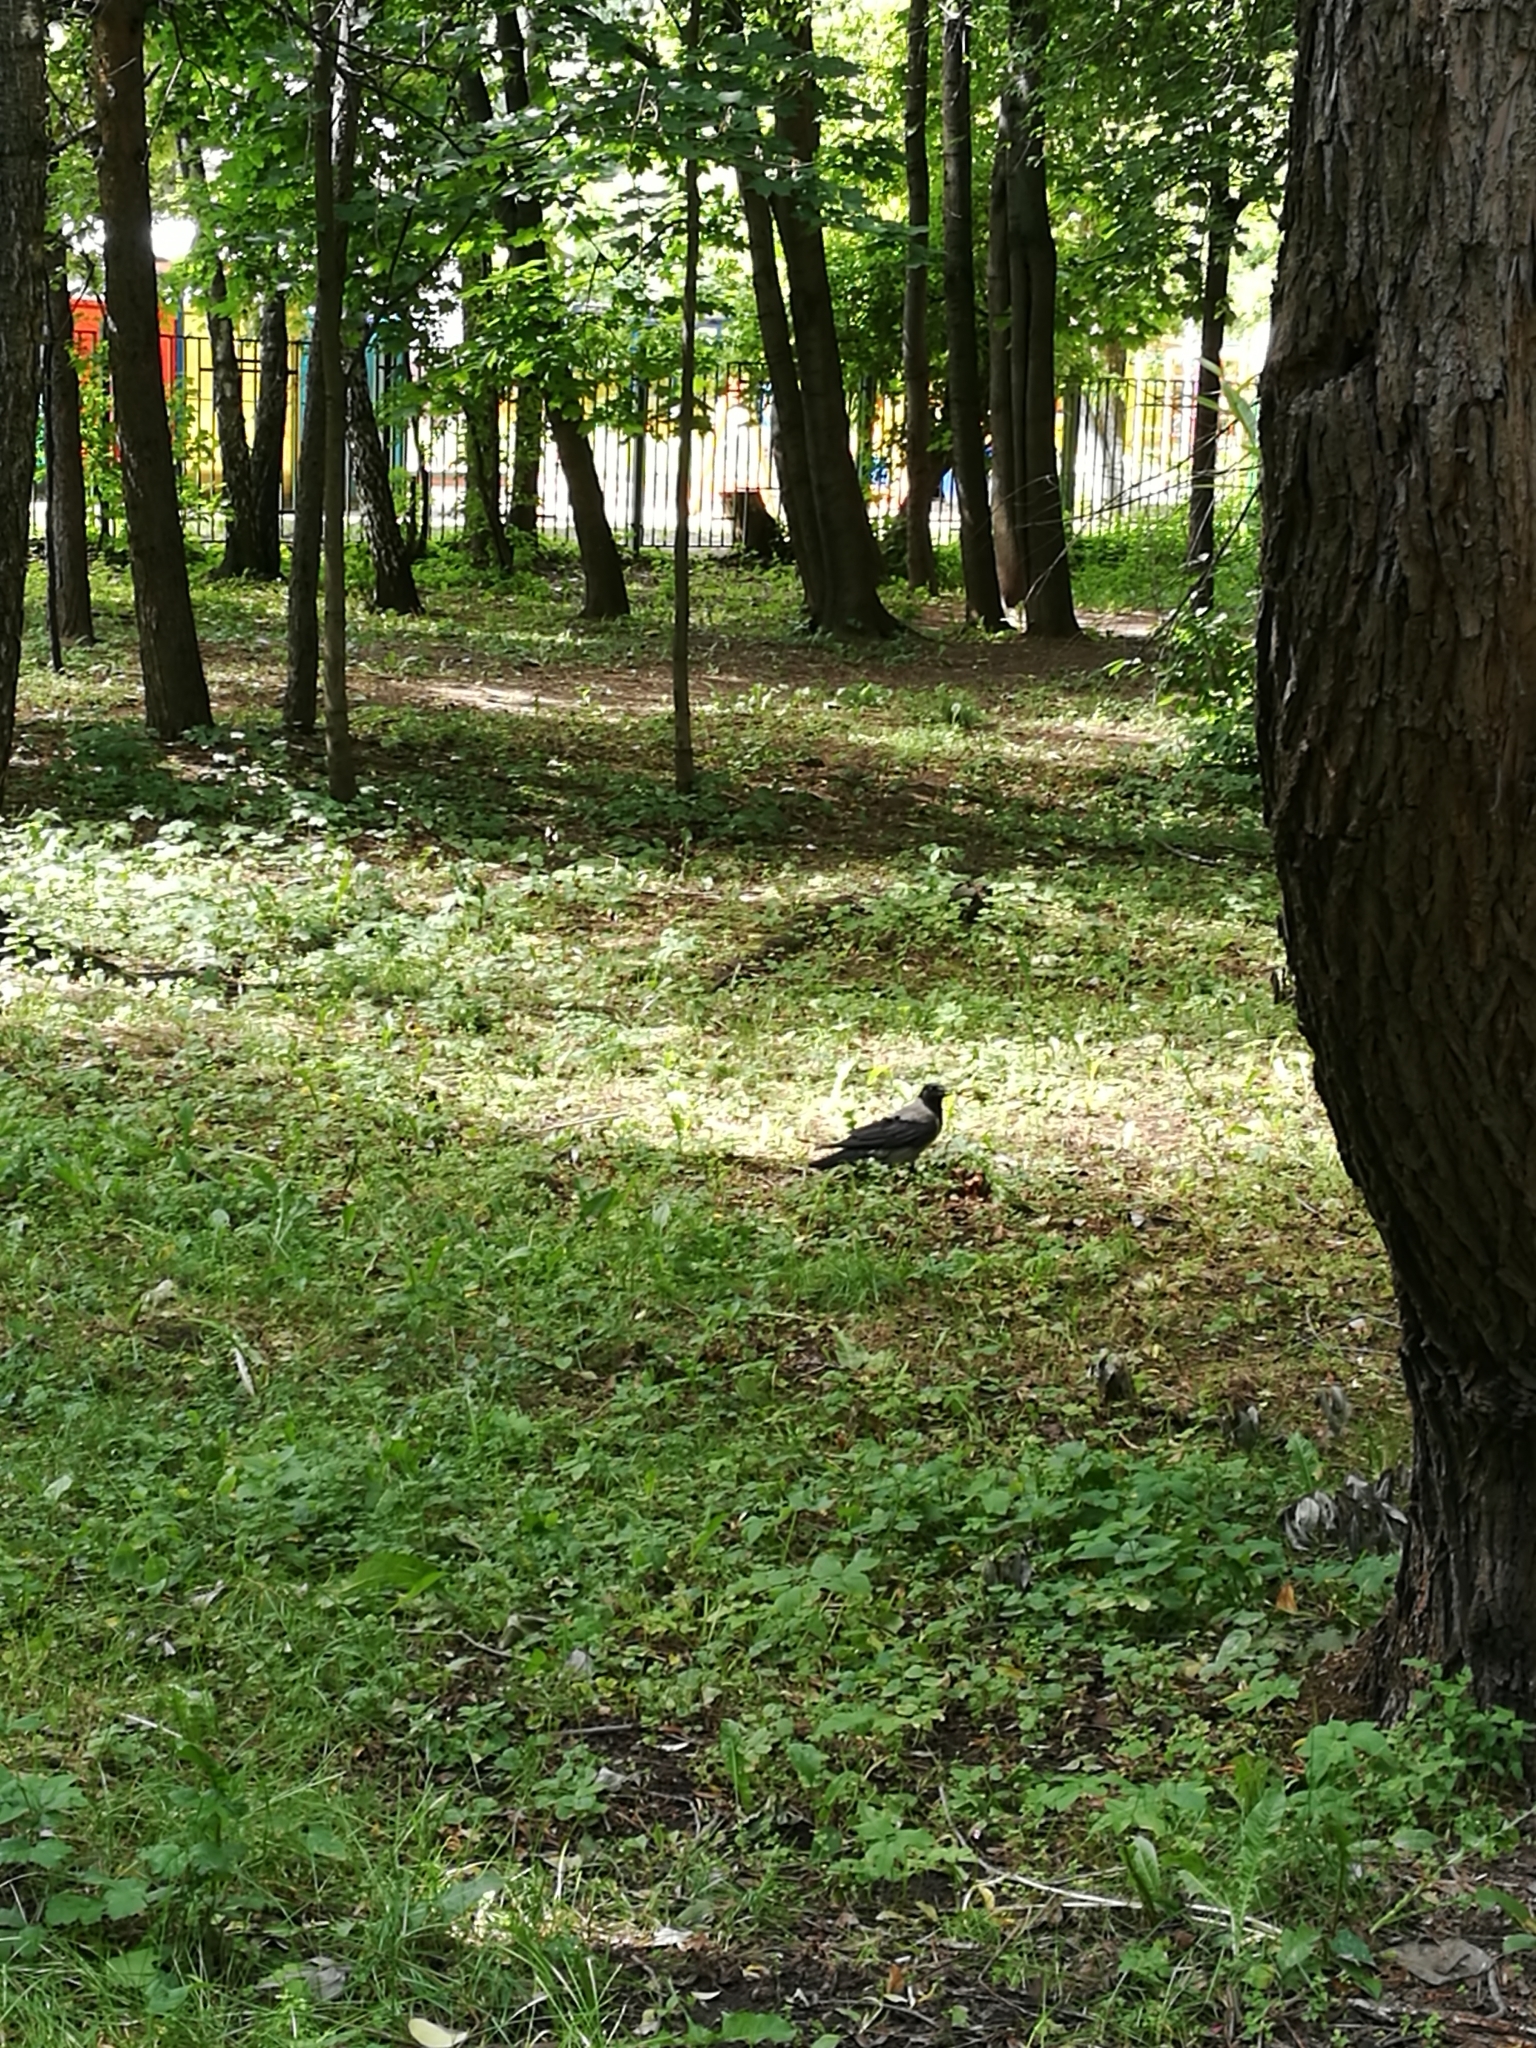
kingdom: Animalia
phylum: Chordata
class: Aves
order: Passeriformes
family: Corvidae
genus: Corvus
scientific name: Corvus cornix
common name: Hooded crow
